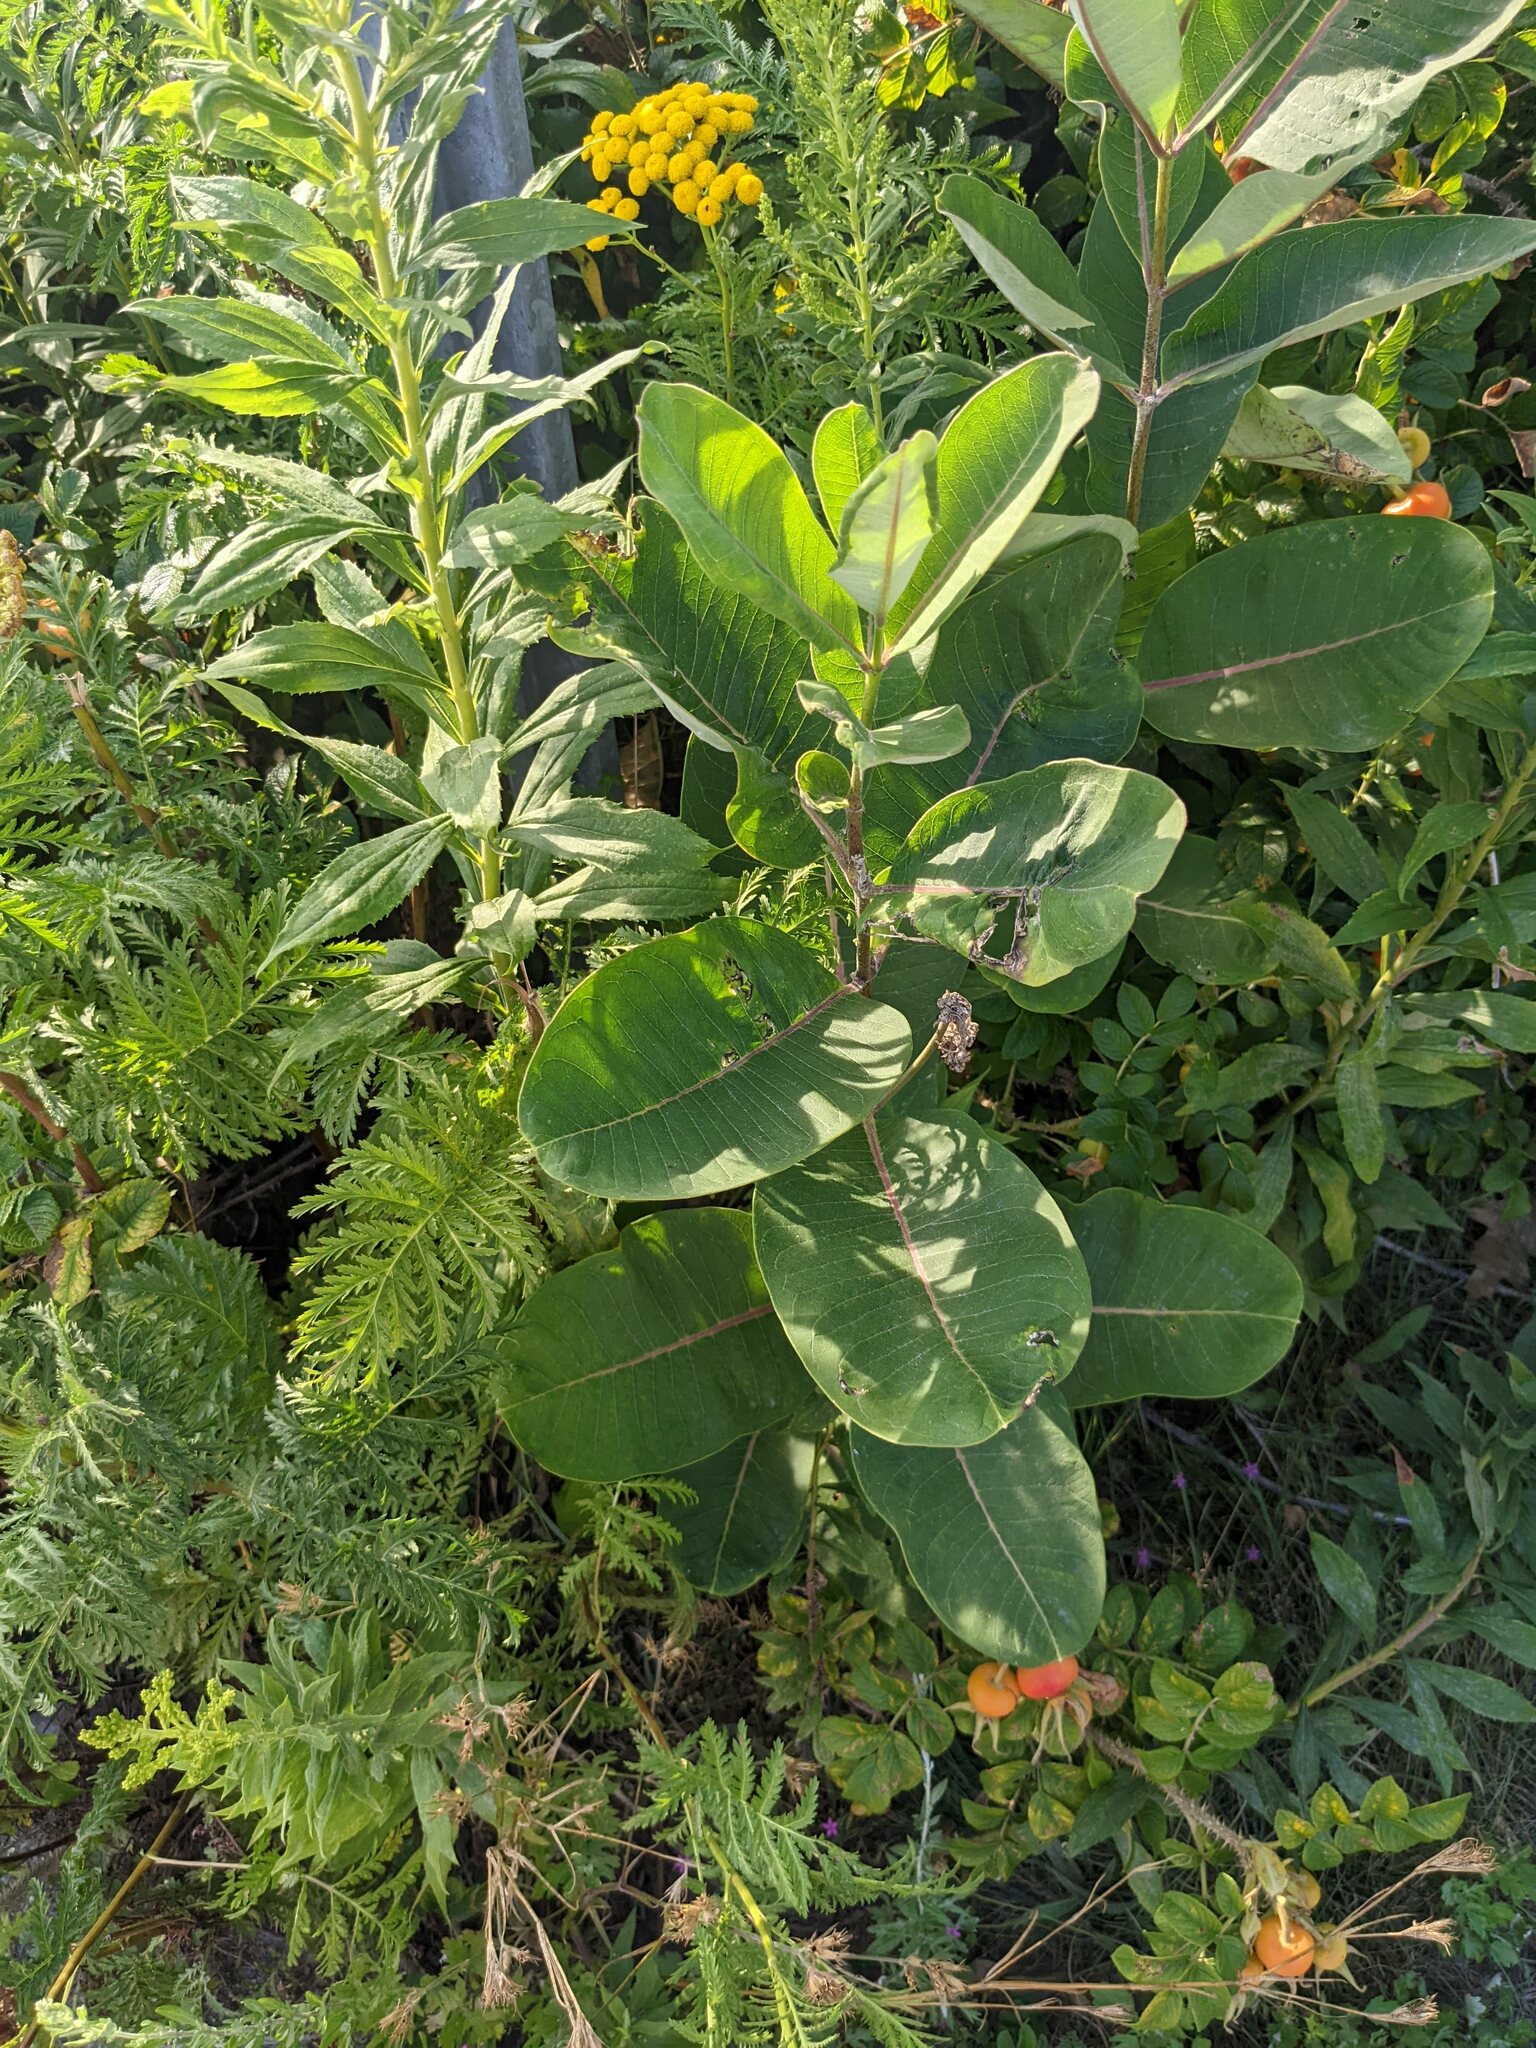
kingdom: Plantae
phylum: Tracheophyta
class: Magnoliopsida
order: Gentianales
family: Apocynaceae
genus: Asclepias
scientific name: Asclepias syriaca
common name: Common milkweed
